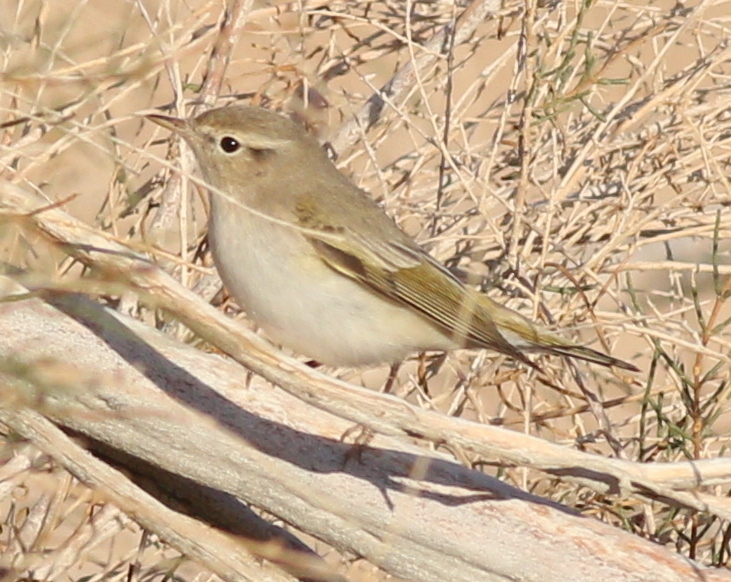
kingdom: Animalia
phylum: Chordata
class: Aves
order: Passeriformes
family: Phylloscopidae
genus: Phylloscopus
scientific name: Phylloscopus orientalis
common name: Eastern bonelli's warbler
